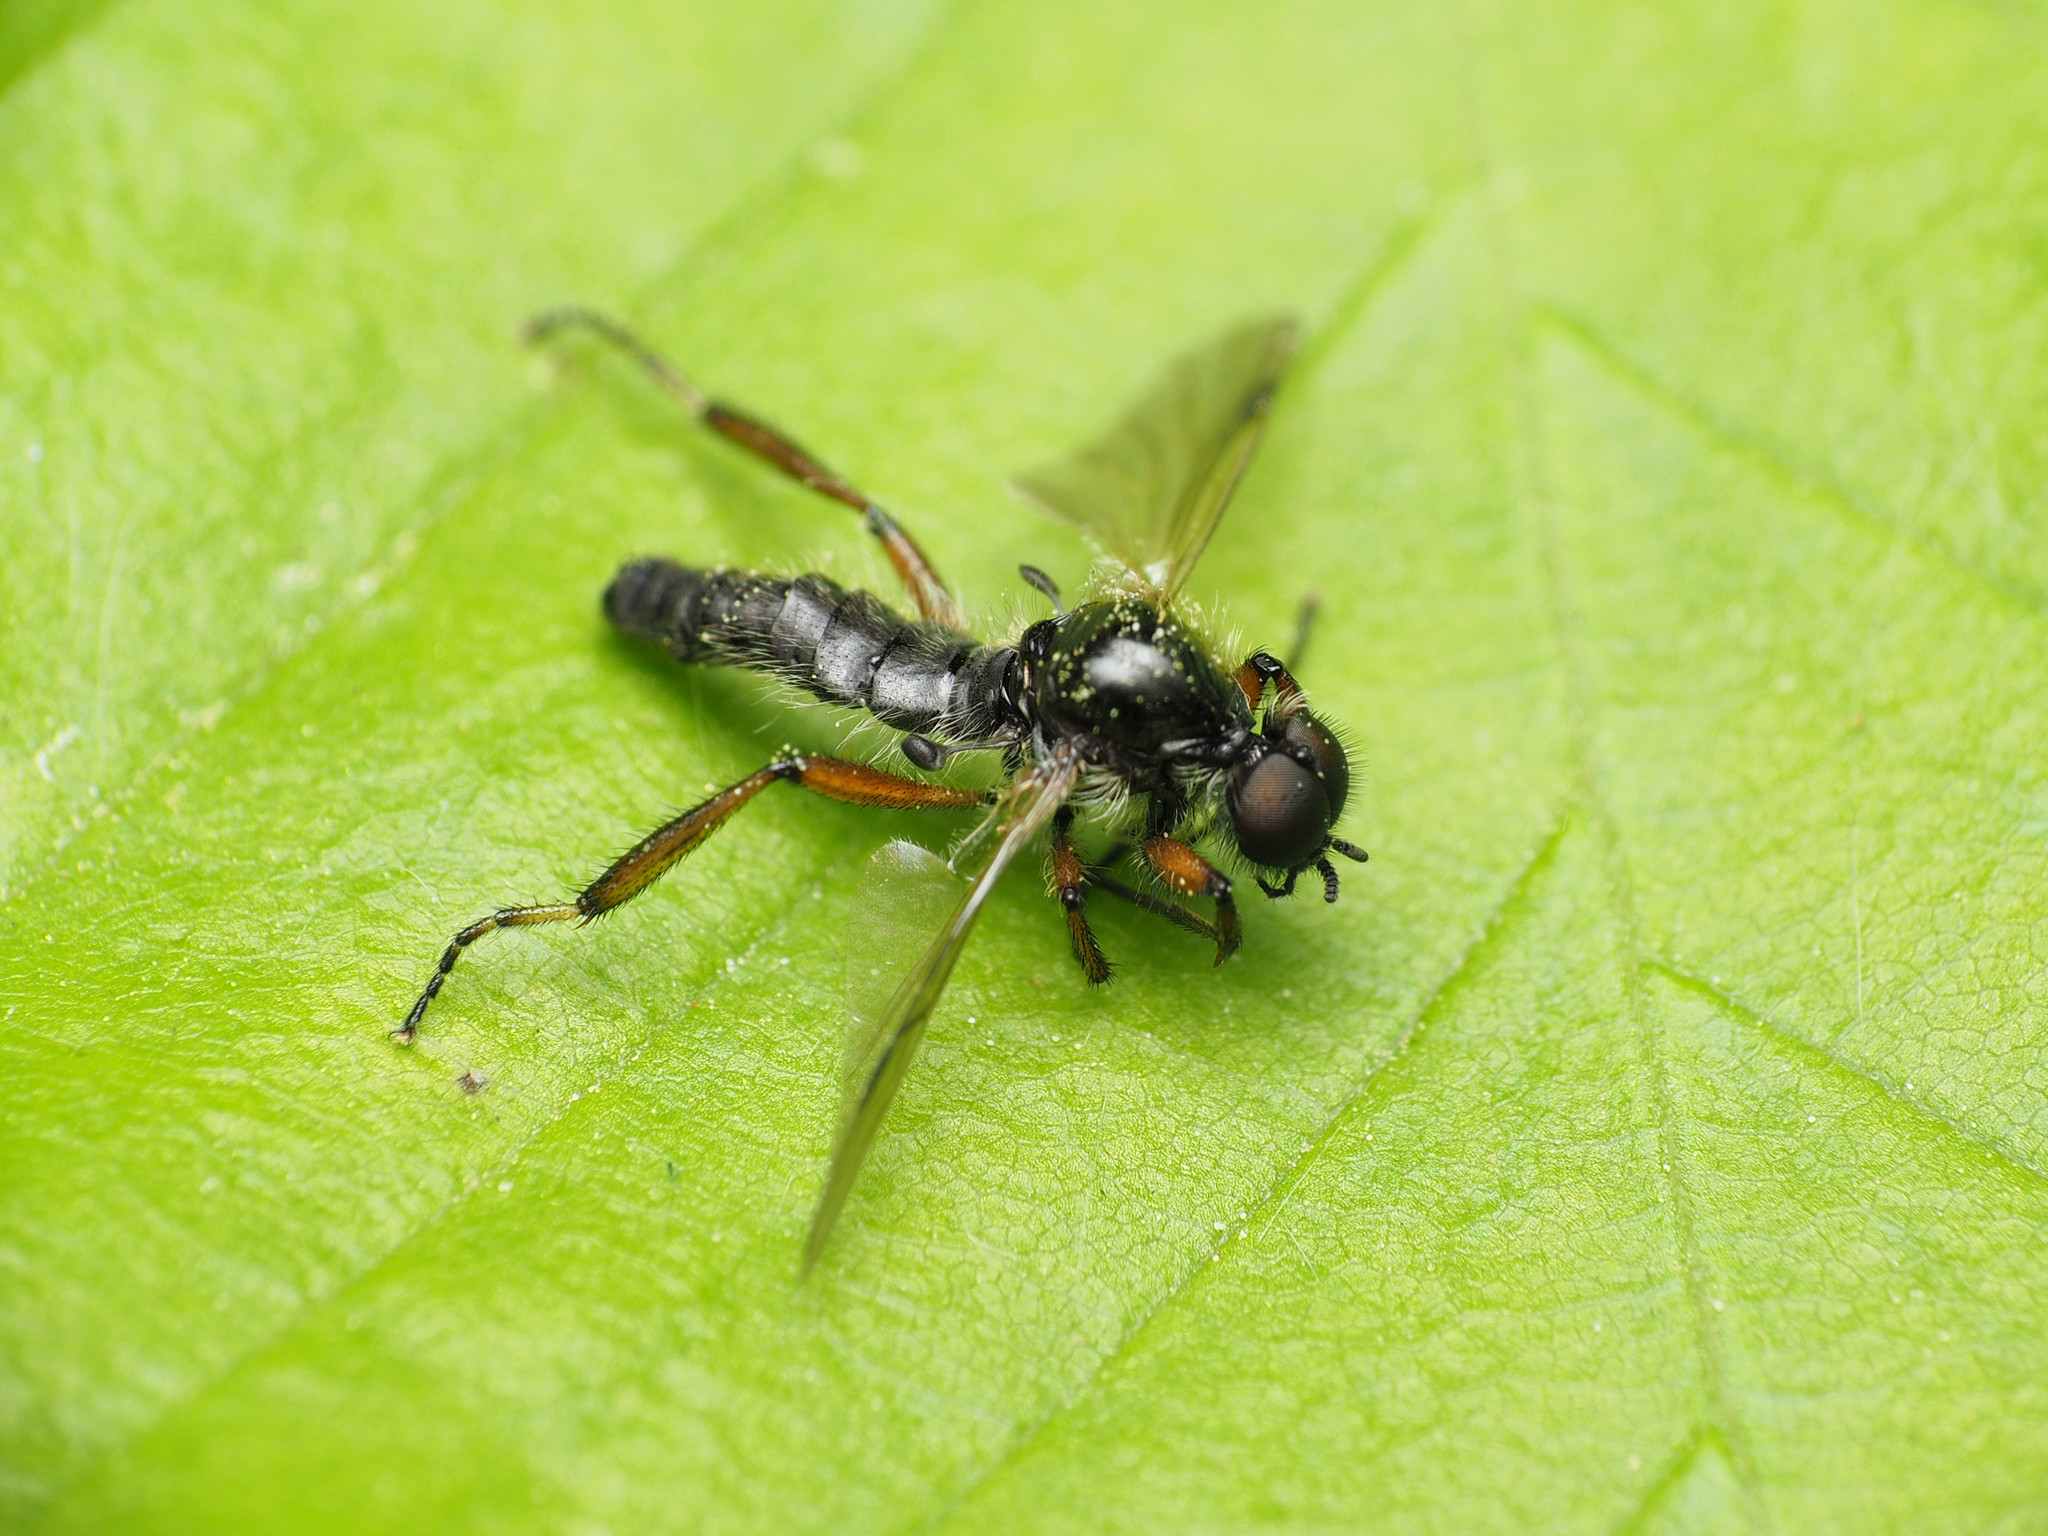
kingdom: Animalia
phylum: Arthropoda
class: Insecta
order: Diptera
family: Bibionidae
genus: Bibio
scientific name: Bibio articulatus
